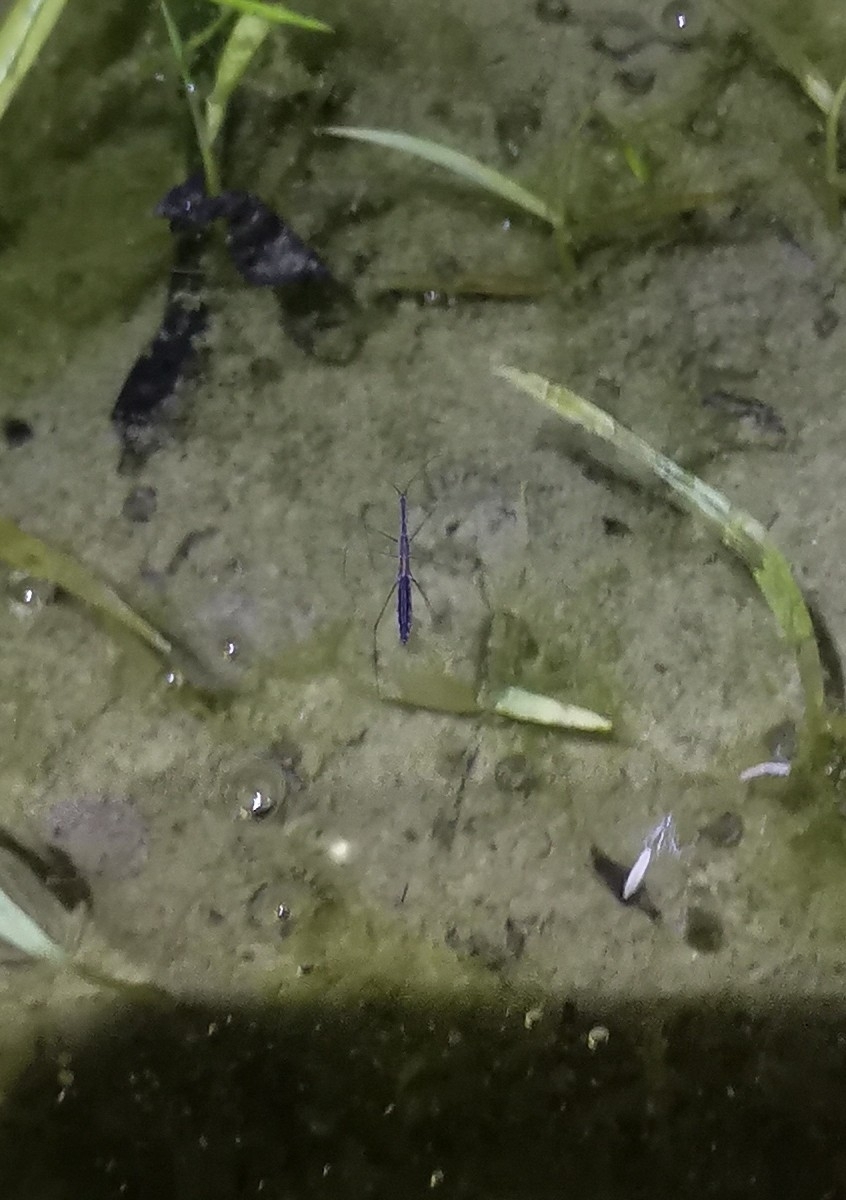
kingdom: Animalia
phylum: Arthropoda
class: Insecta
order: Hemiptera
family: Hydrometridae
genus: Hydrometra
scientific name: Hydrometra stagnorum
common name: Water measurer
